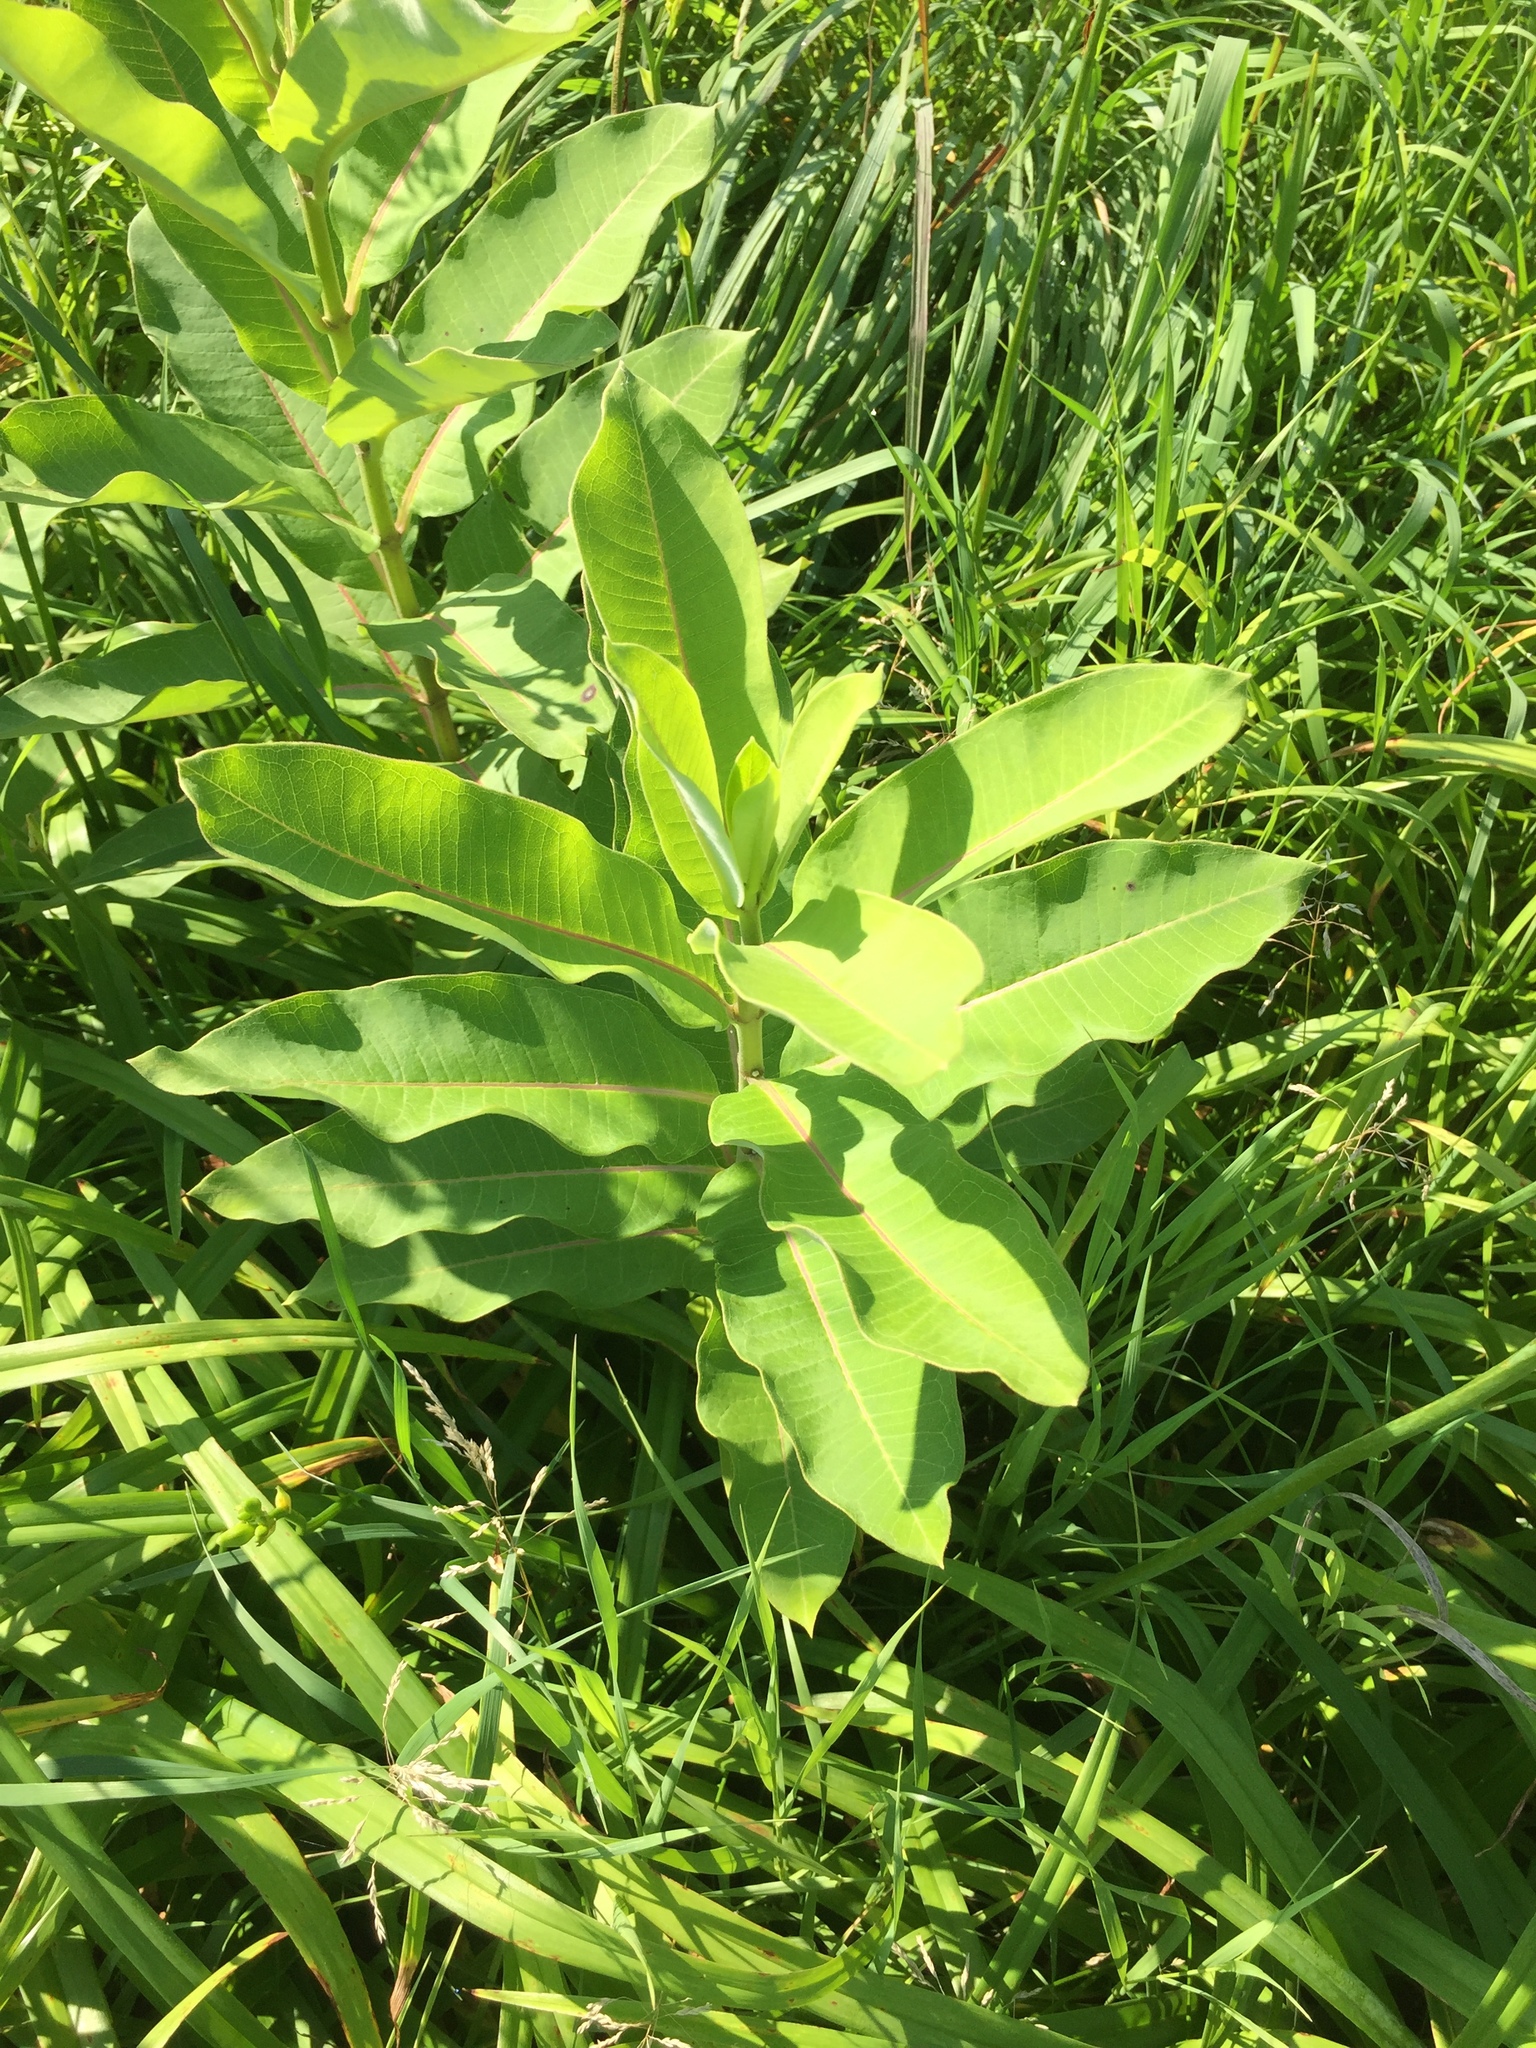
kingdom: Plantae
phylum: Tracheophyta
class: Magnoliopsida
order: Gentianales
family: Apocynaceae
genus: Asclepias
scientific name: Asclepias syriaca
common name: Common milkweed
